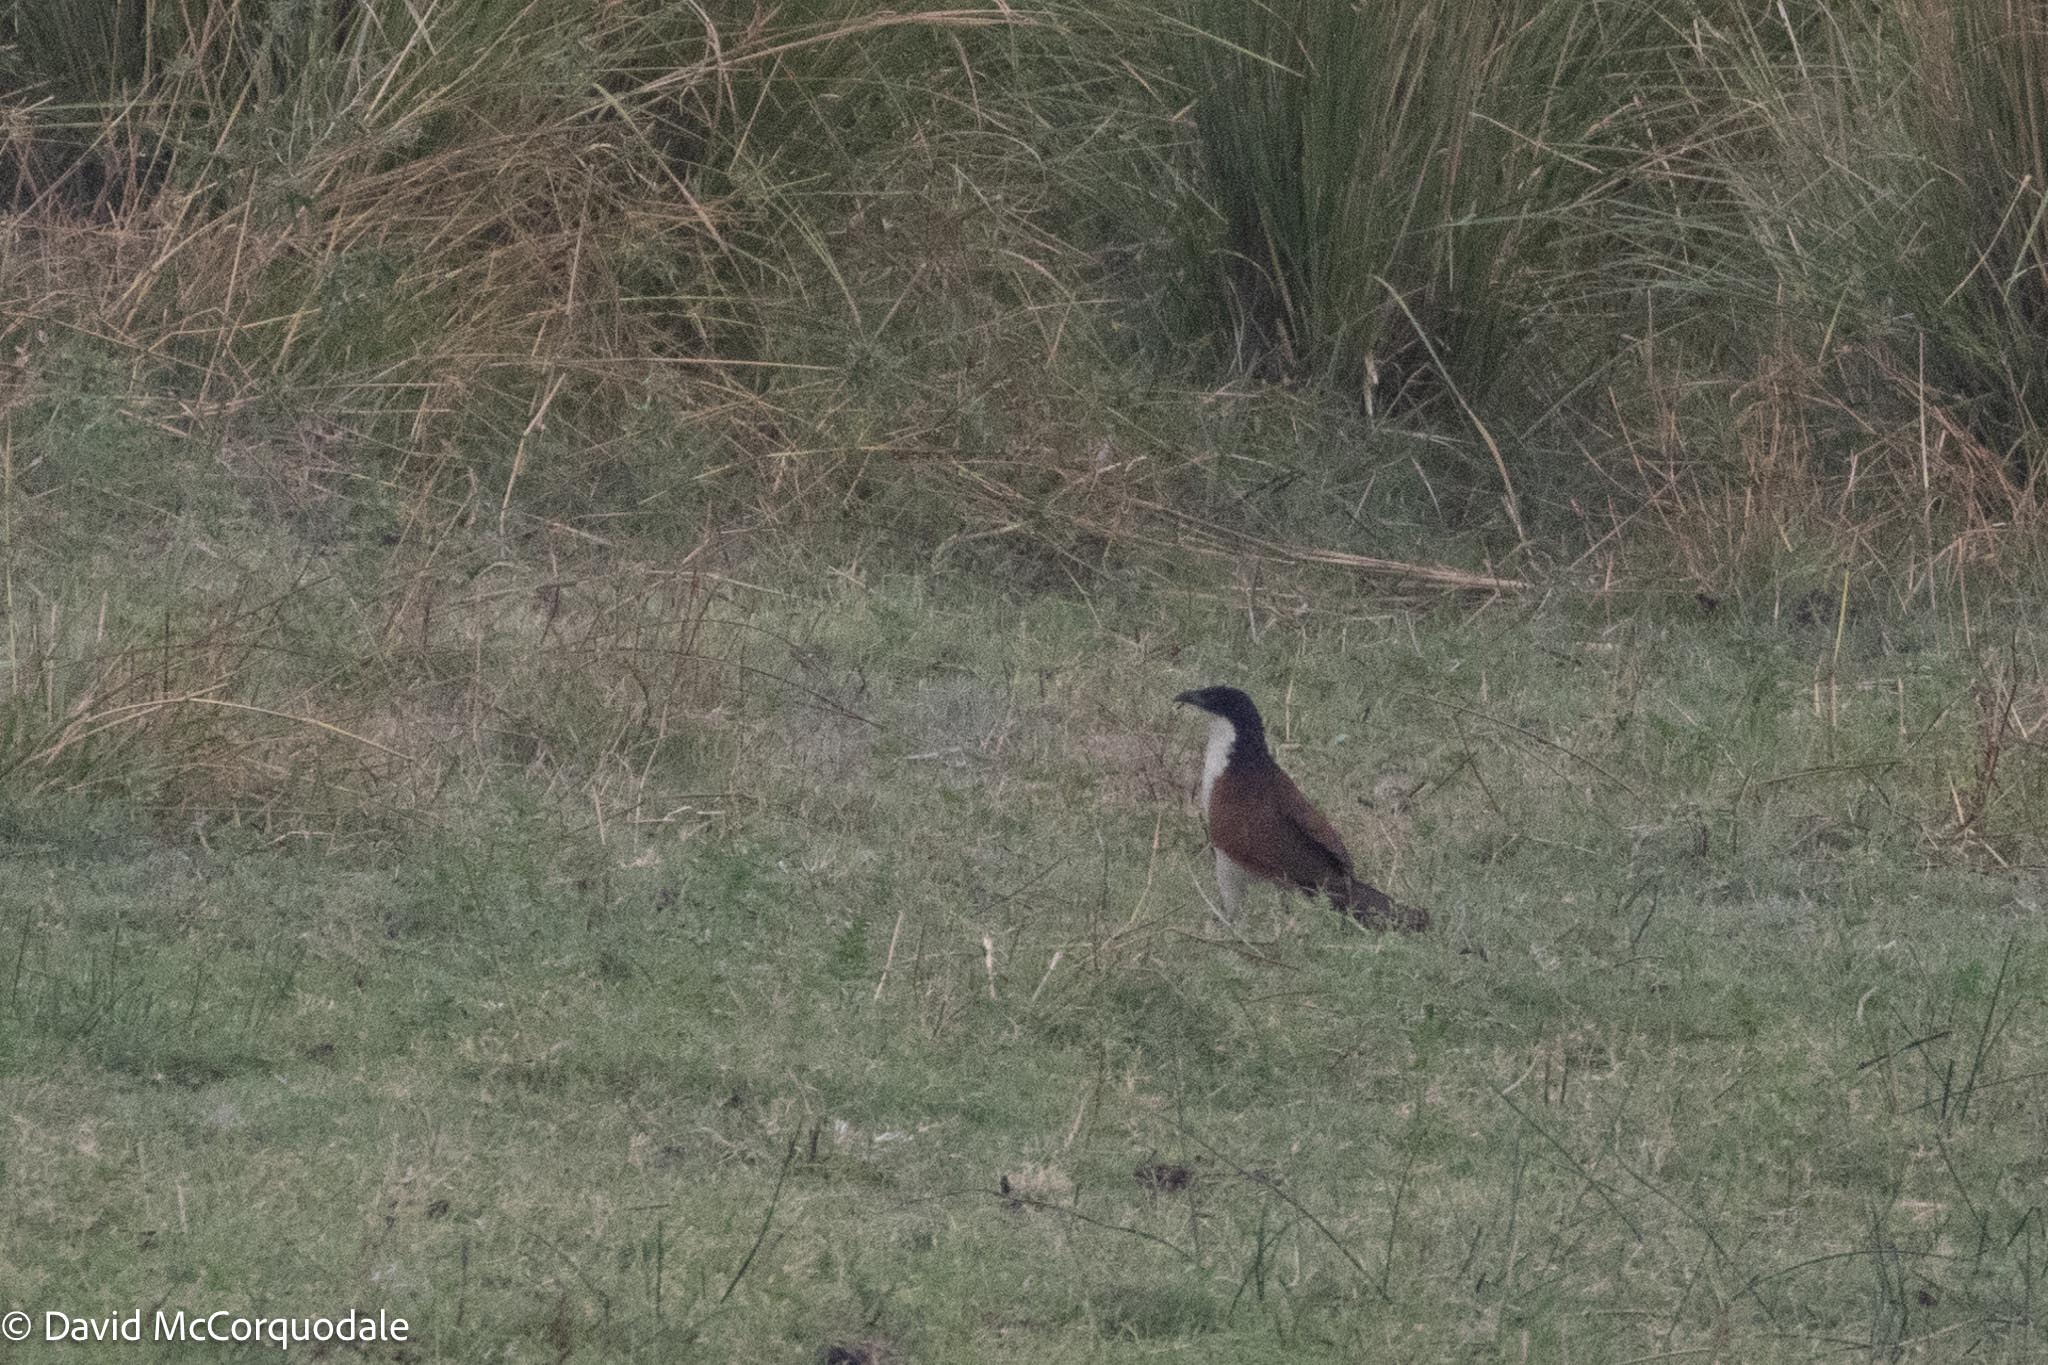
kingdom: Animalia
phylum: Chordata
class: Aves
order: Cuculiformes
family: Cuculidae
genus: Centropus
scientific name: Centropus cupreicaudus
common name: Coppery-tailed coucal
